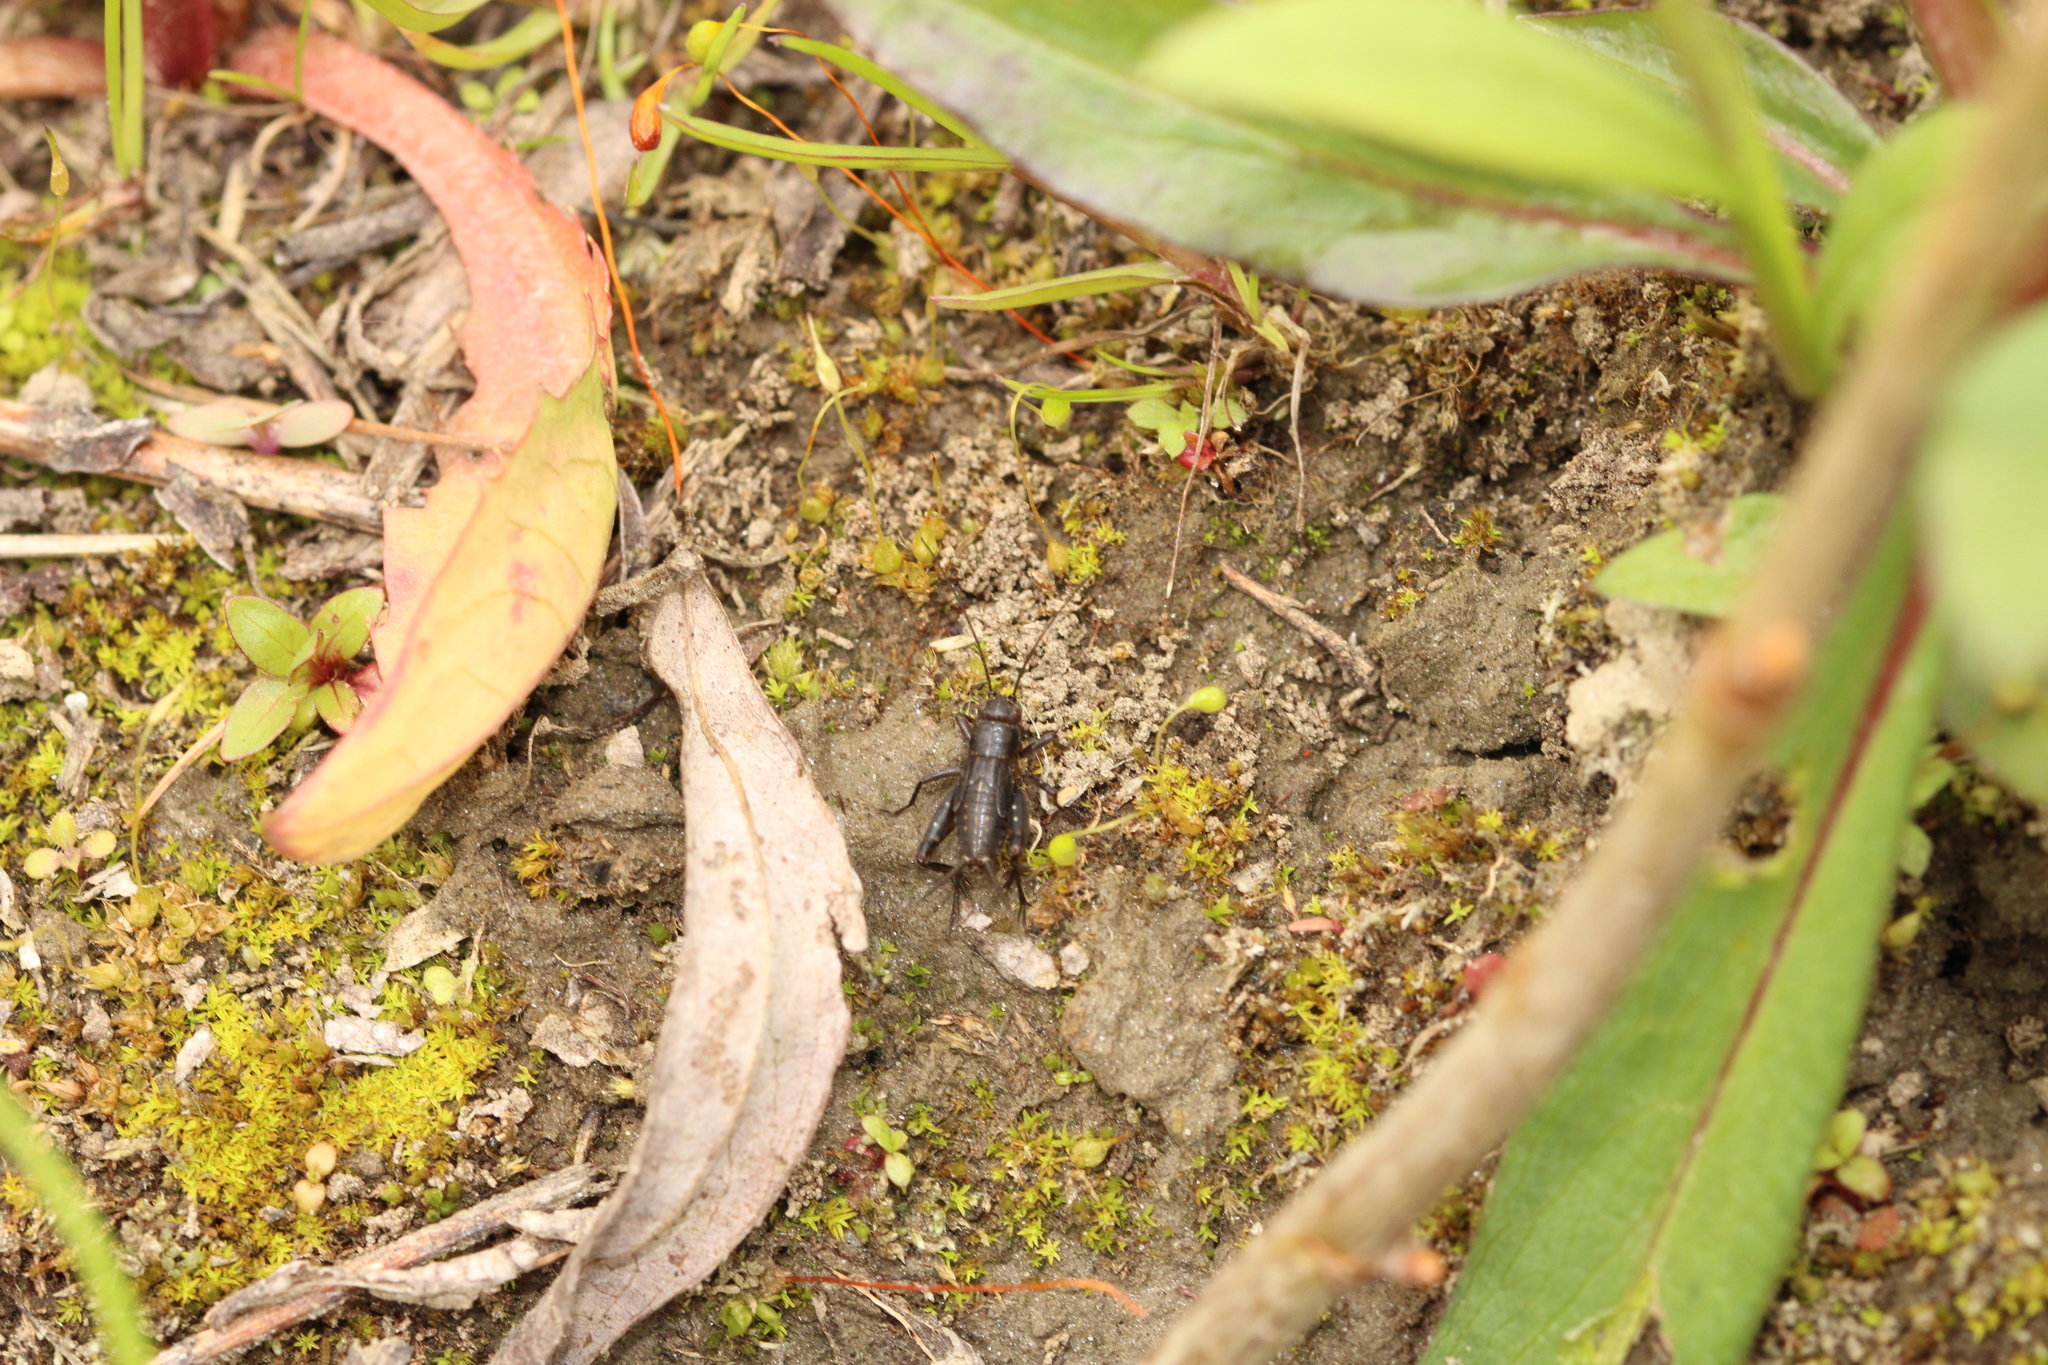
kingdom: Animalia
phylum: Arthropoda
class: Insecta
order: Orthoptera
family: Trigonidiidae
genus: Pteronemobius
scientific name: Pteronemobius heydenii
